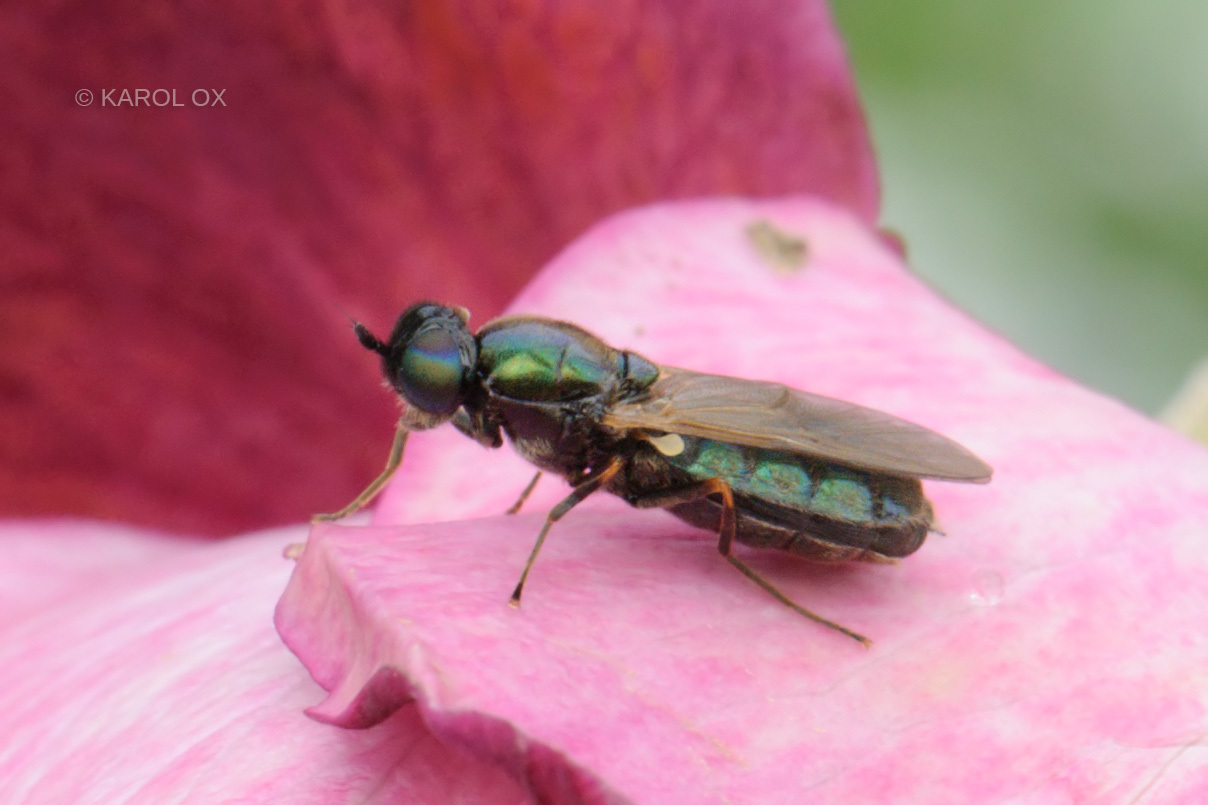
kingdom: Animalia
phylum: Arthropoda
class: Insecta
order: Diptera
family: Stratiomyidae
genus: Chloromyia
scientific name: Chloromyia formosa
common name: Soldier fly
